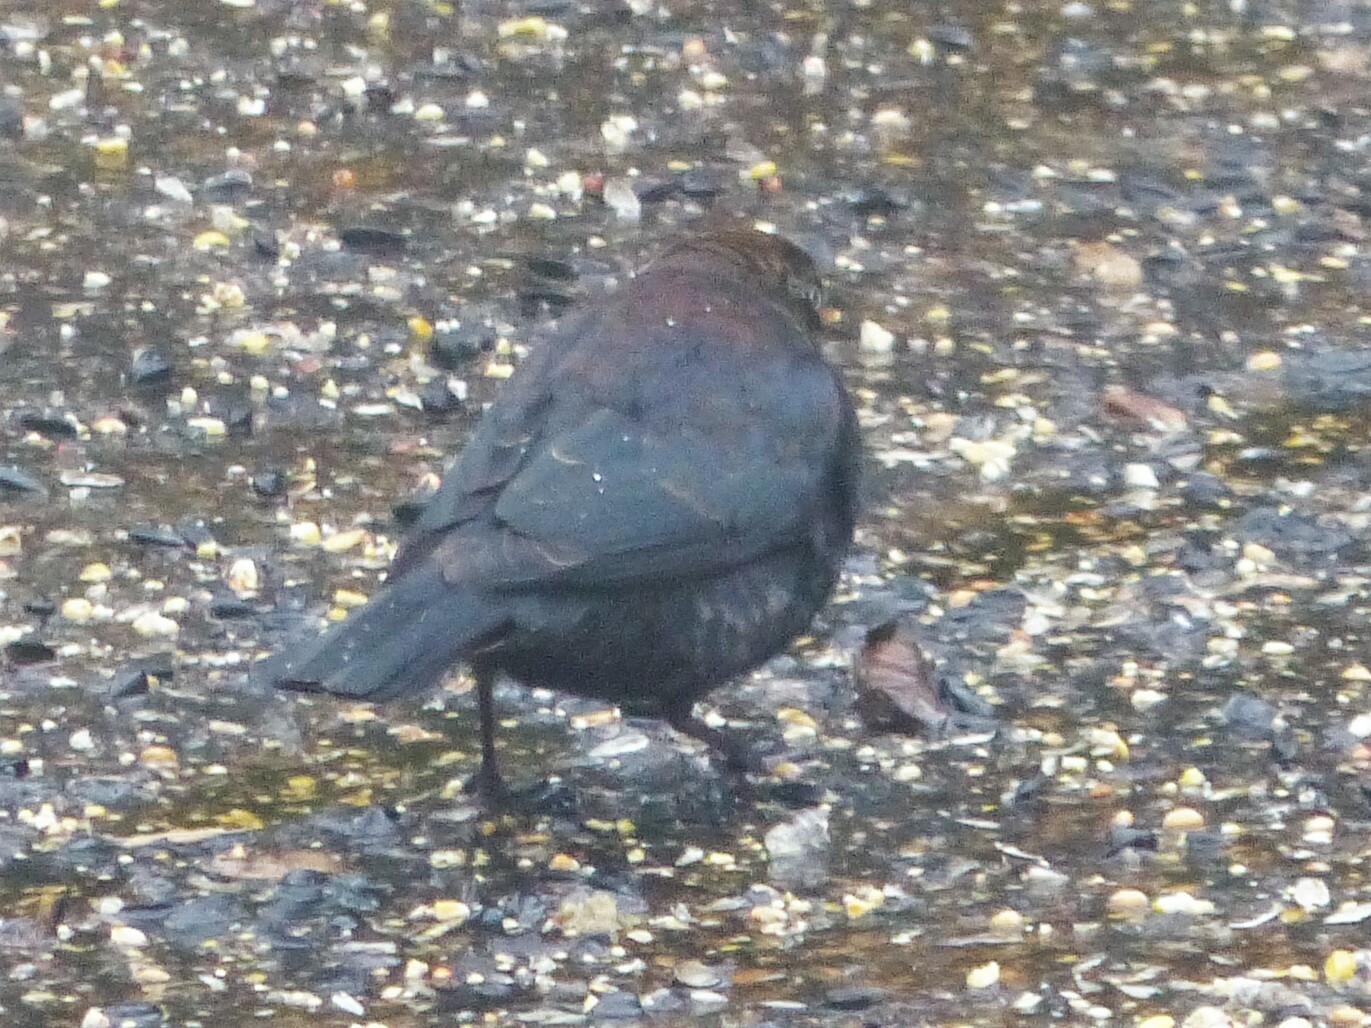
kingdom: Animalia
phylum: Chordata
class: Aves
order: Passeriformes
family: Icteridae
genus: Euphagus
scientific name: Euphagus carolinus
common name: Rusty blackbird
